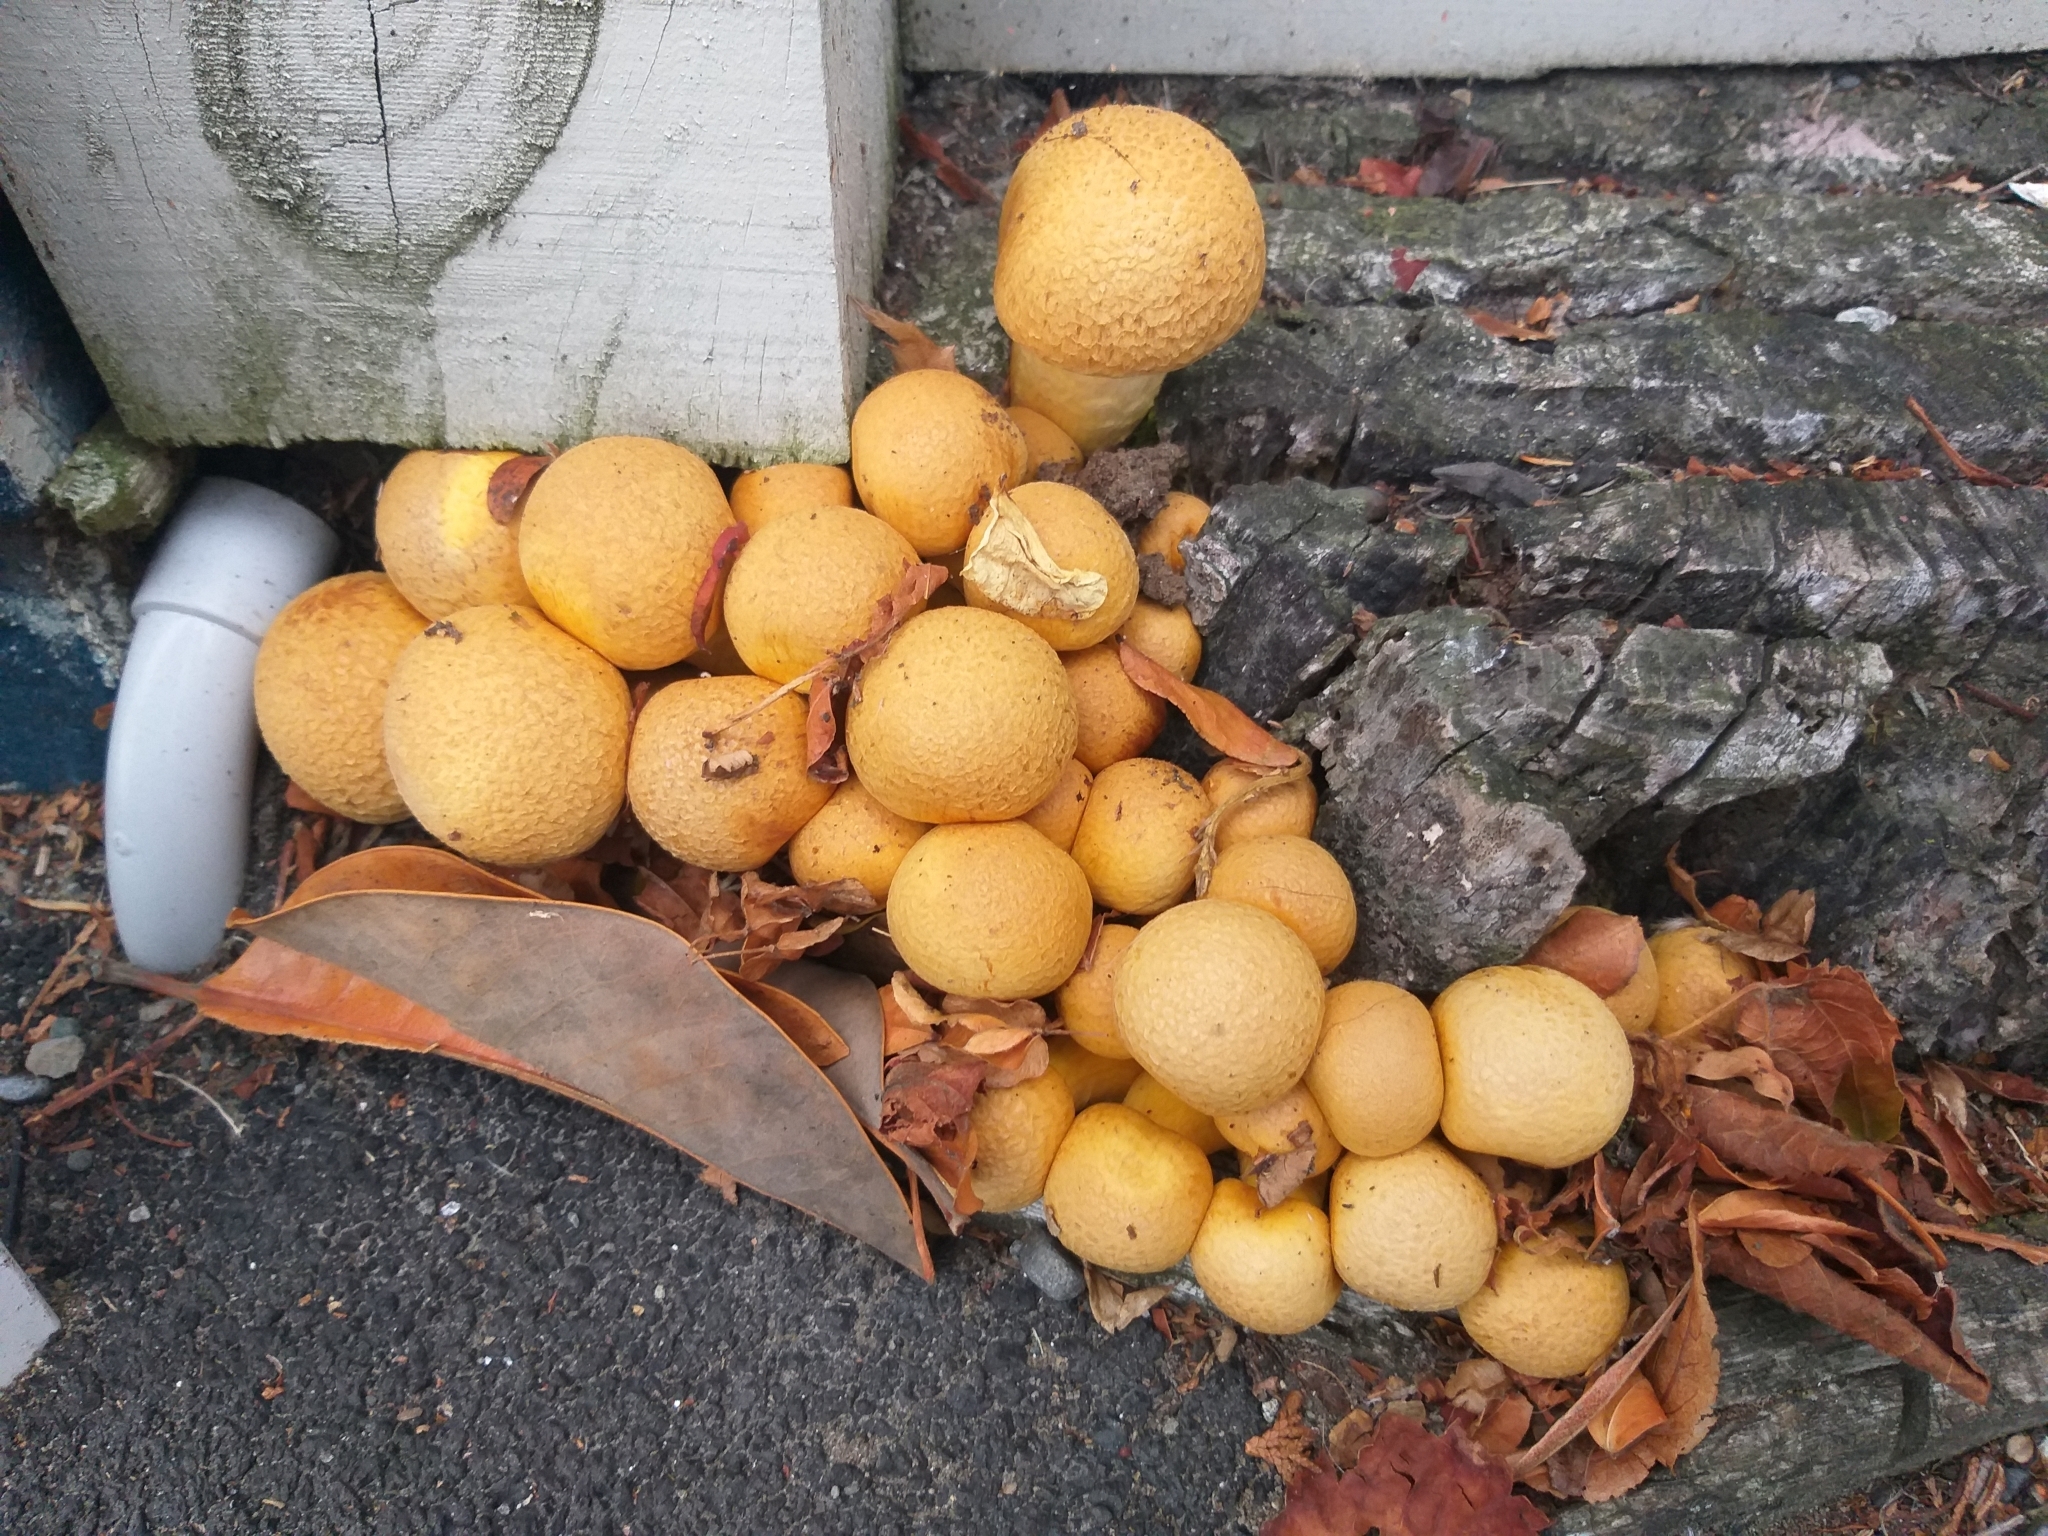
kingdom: Fungi
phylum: Basidiomycota
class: Agaricomycetes
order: Agaricales
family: Hymenogastraceae
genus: Gymnopilus
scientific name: Gymnopilus junonius
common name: Spectacular rustgill
